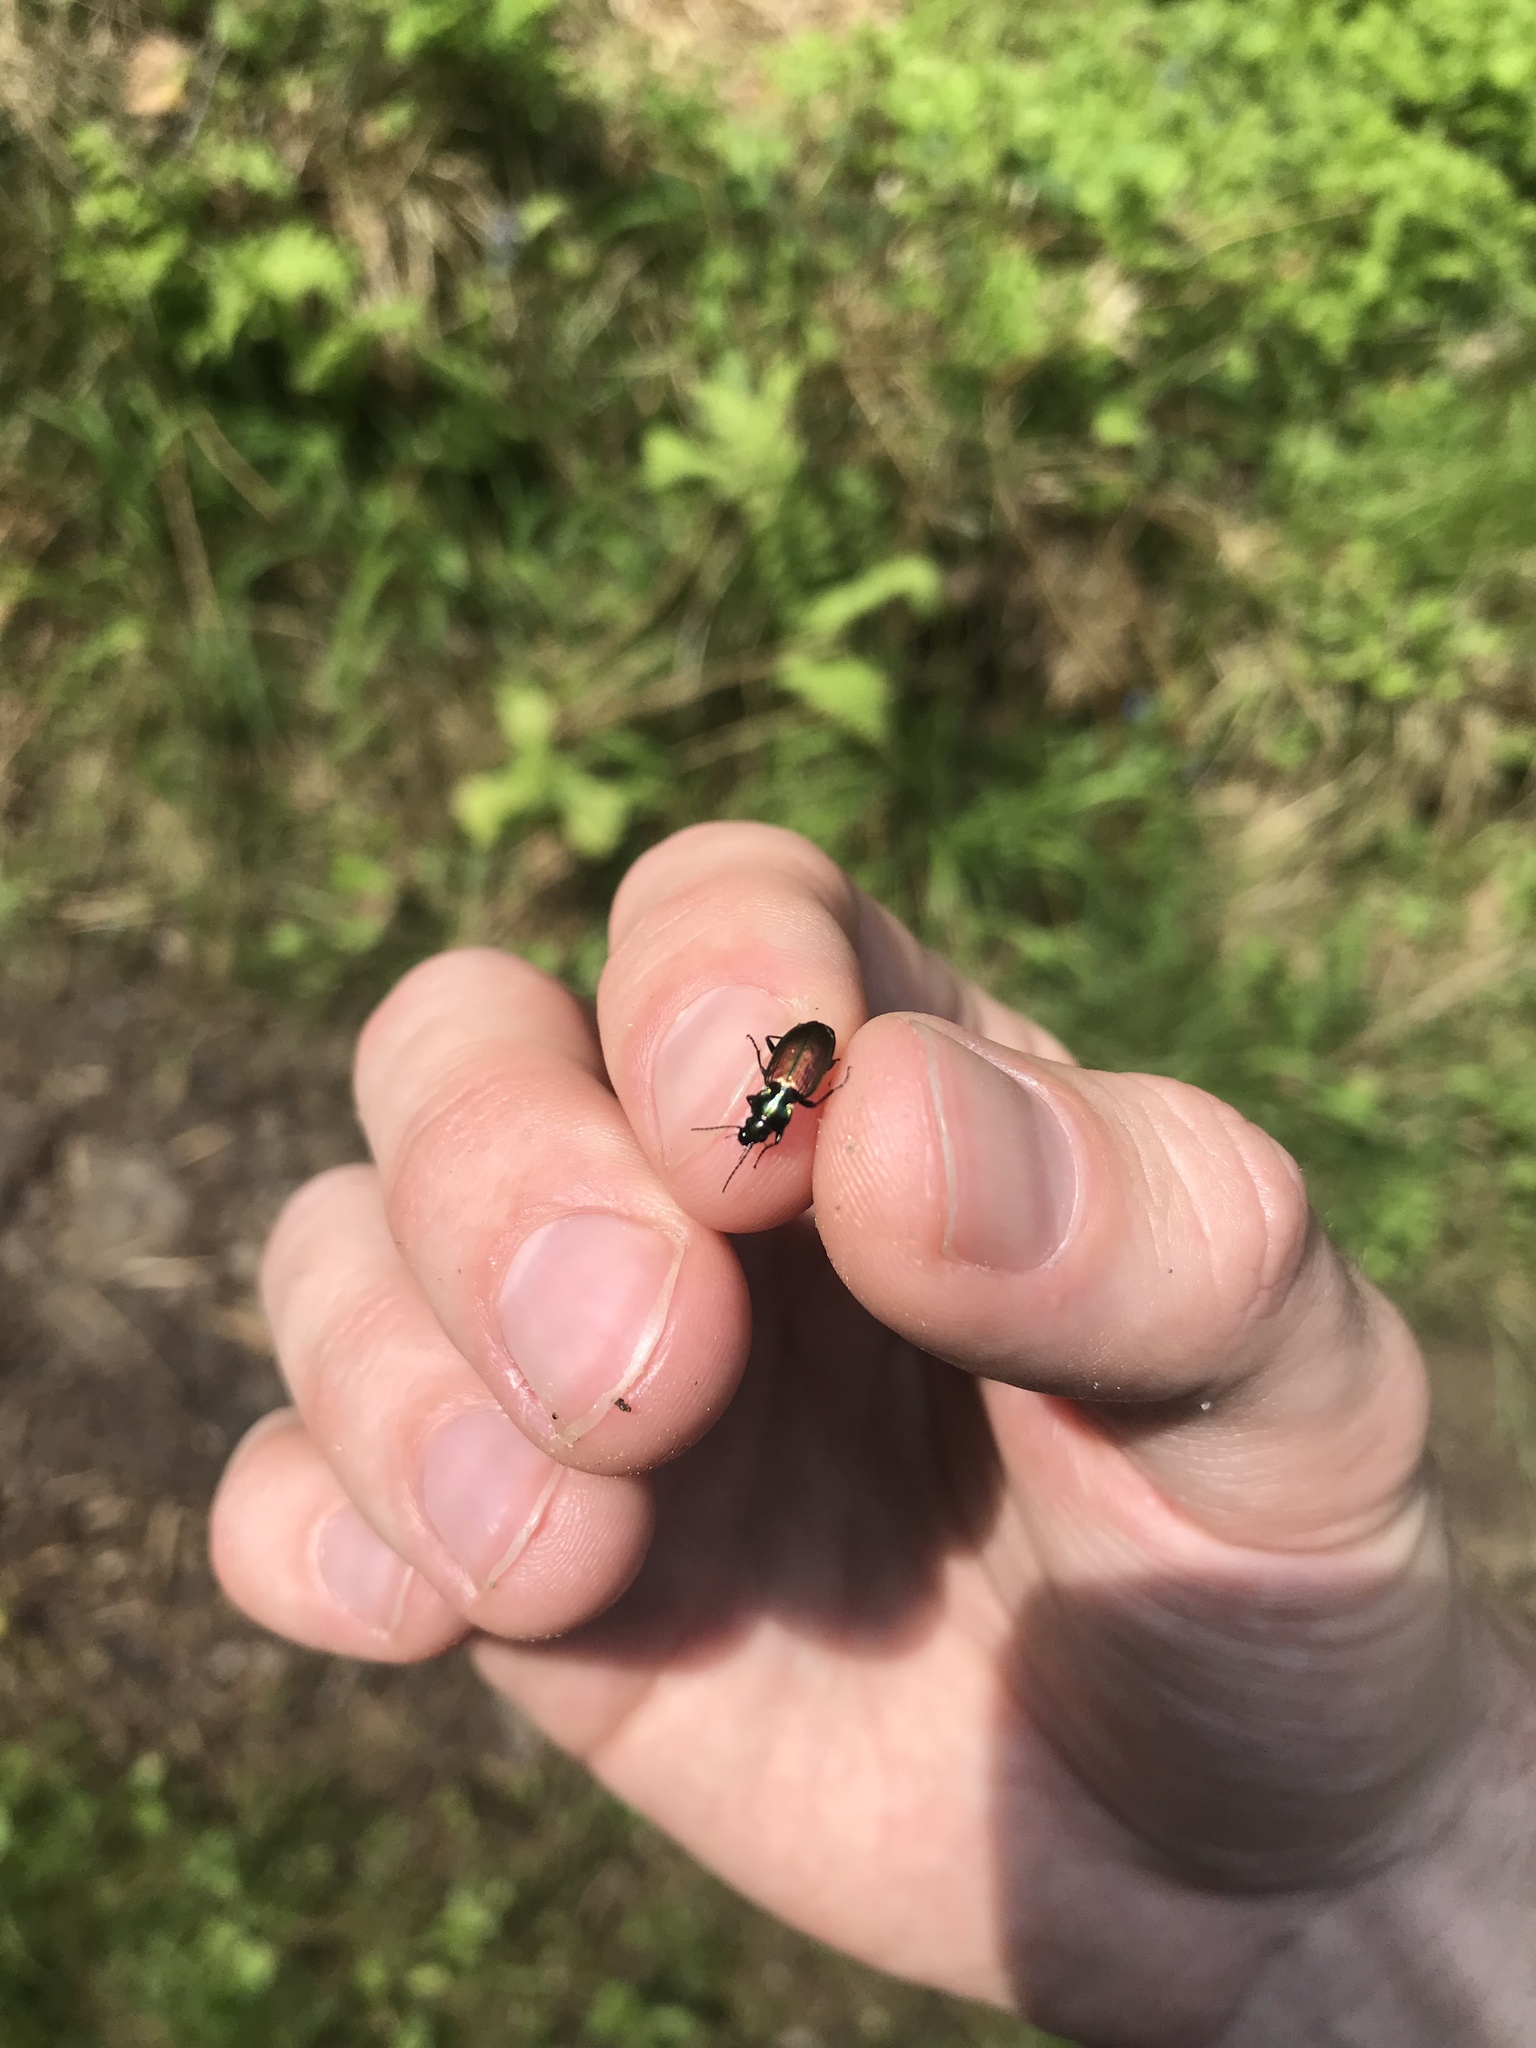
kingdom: Animalia
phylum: Arthropoda
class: Insecta
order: Coleoptera
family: Carabidae
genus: Agonum
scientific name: Agonum sexpunctatum
